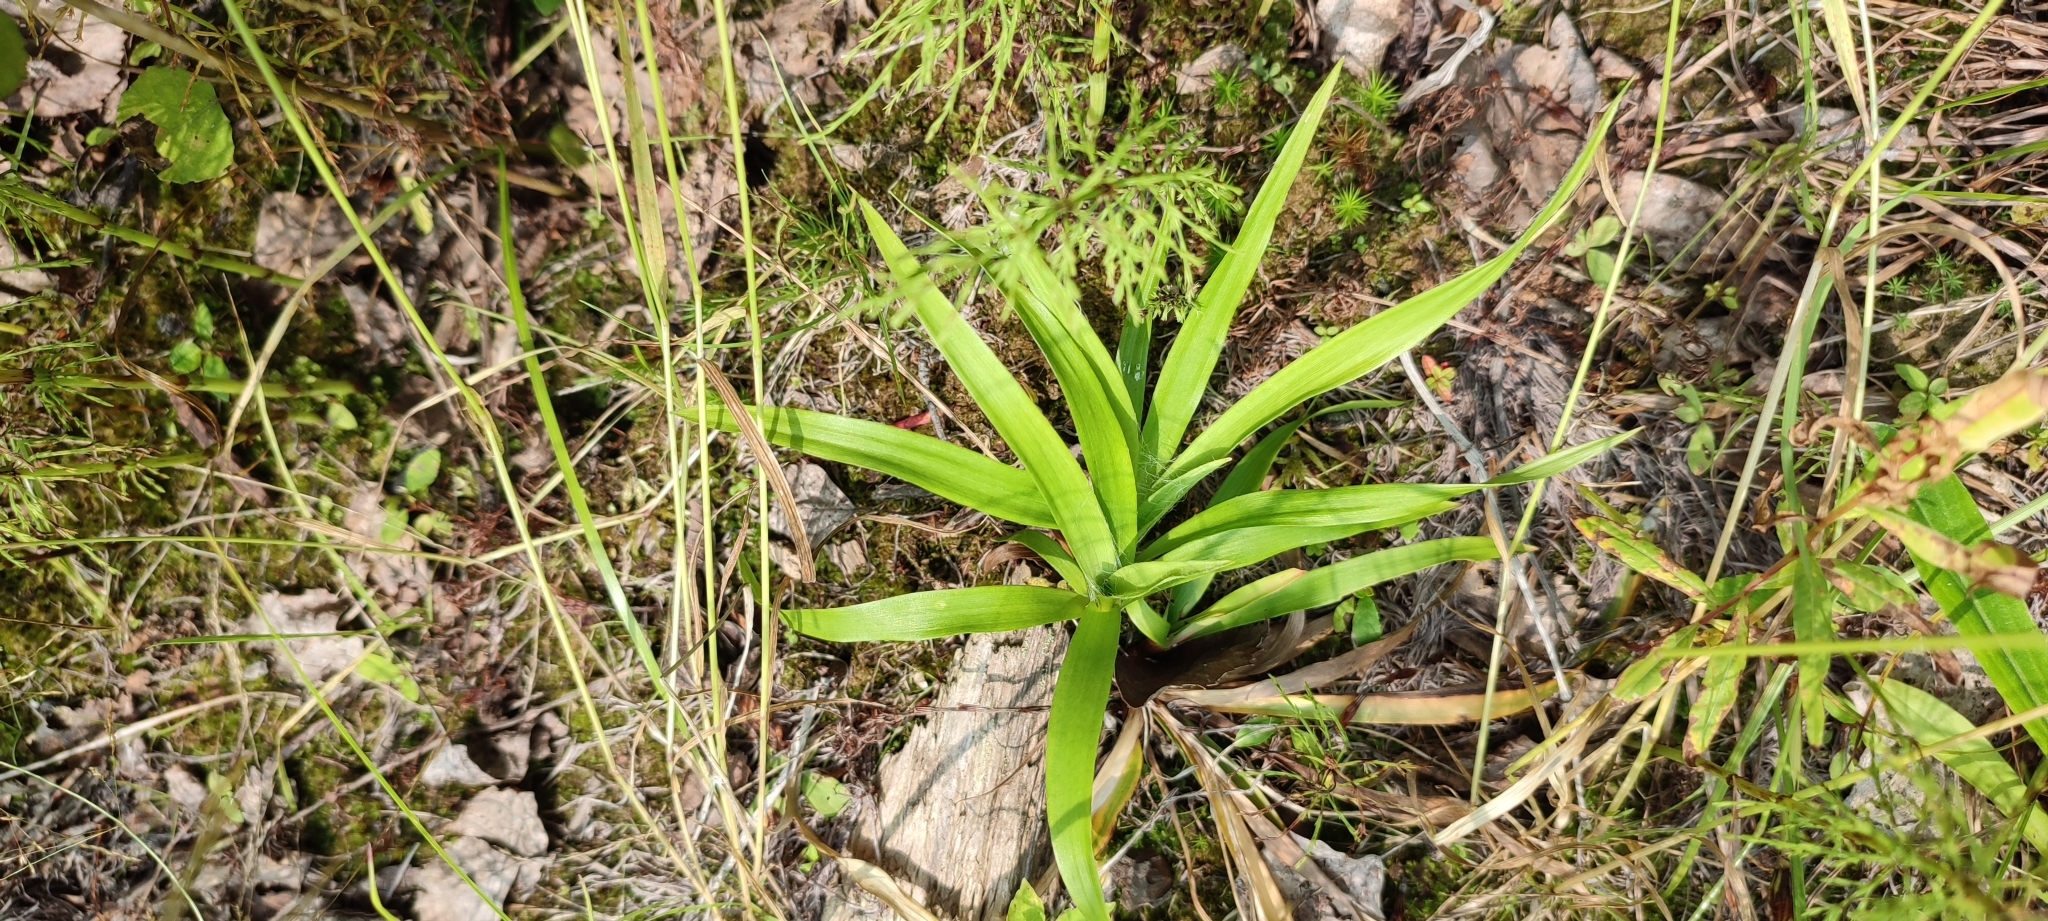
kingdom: Plantae
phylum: Tracheophyta
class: Liliopsida
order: Poales
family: Juncaceae
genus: Luzula
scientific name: Luzula pilosa
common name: Hairy wood-rush
